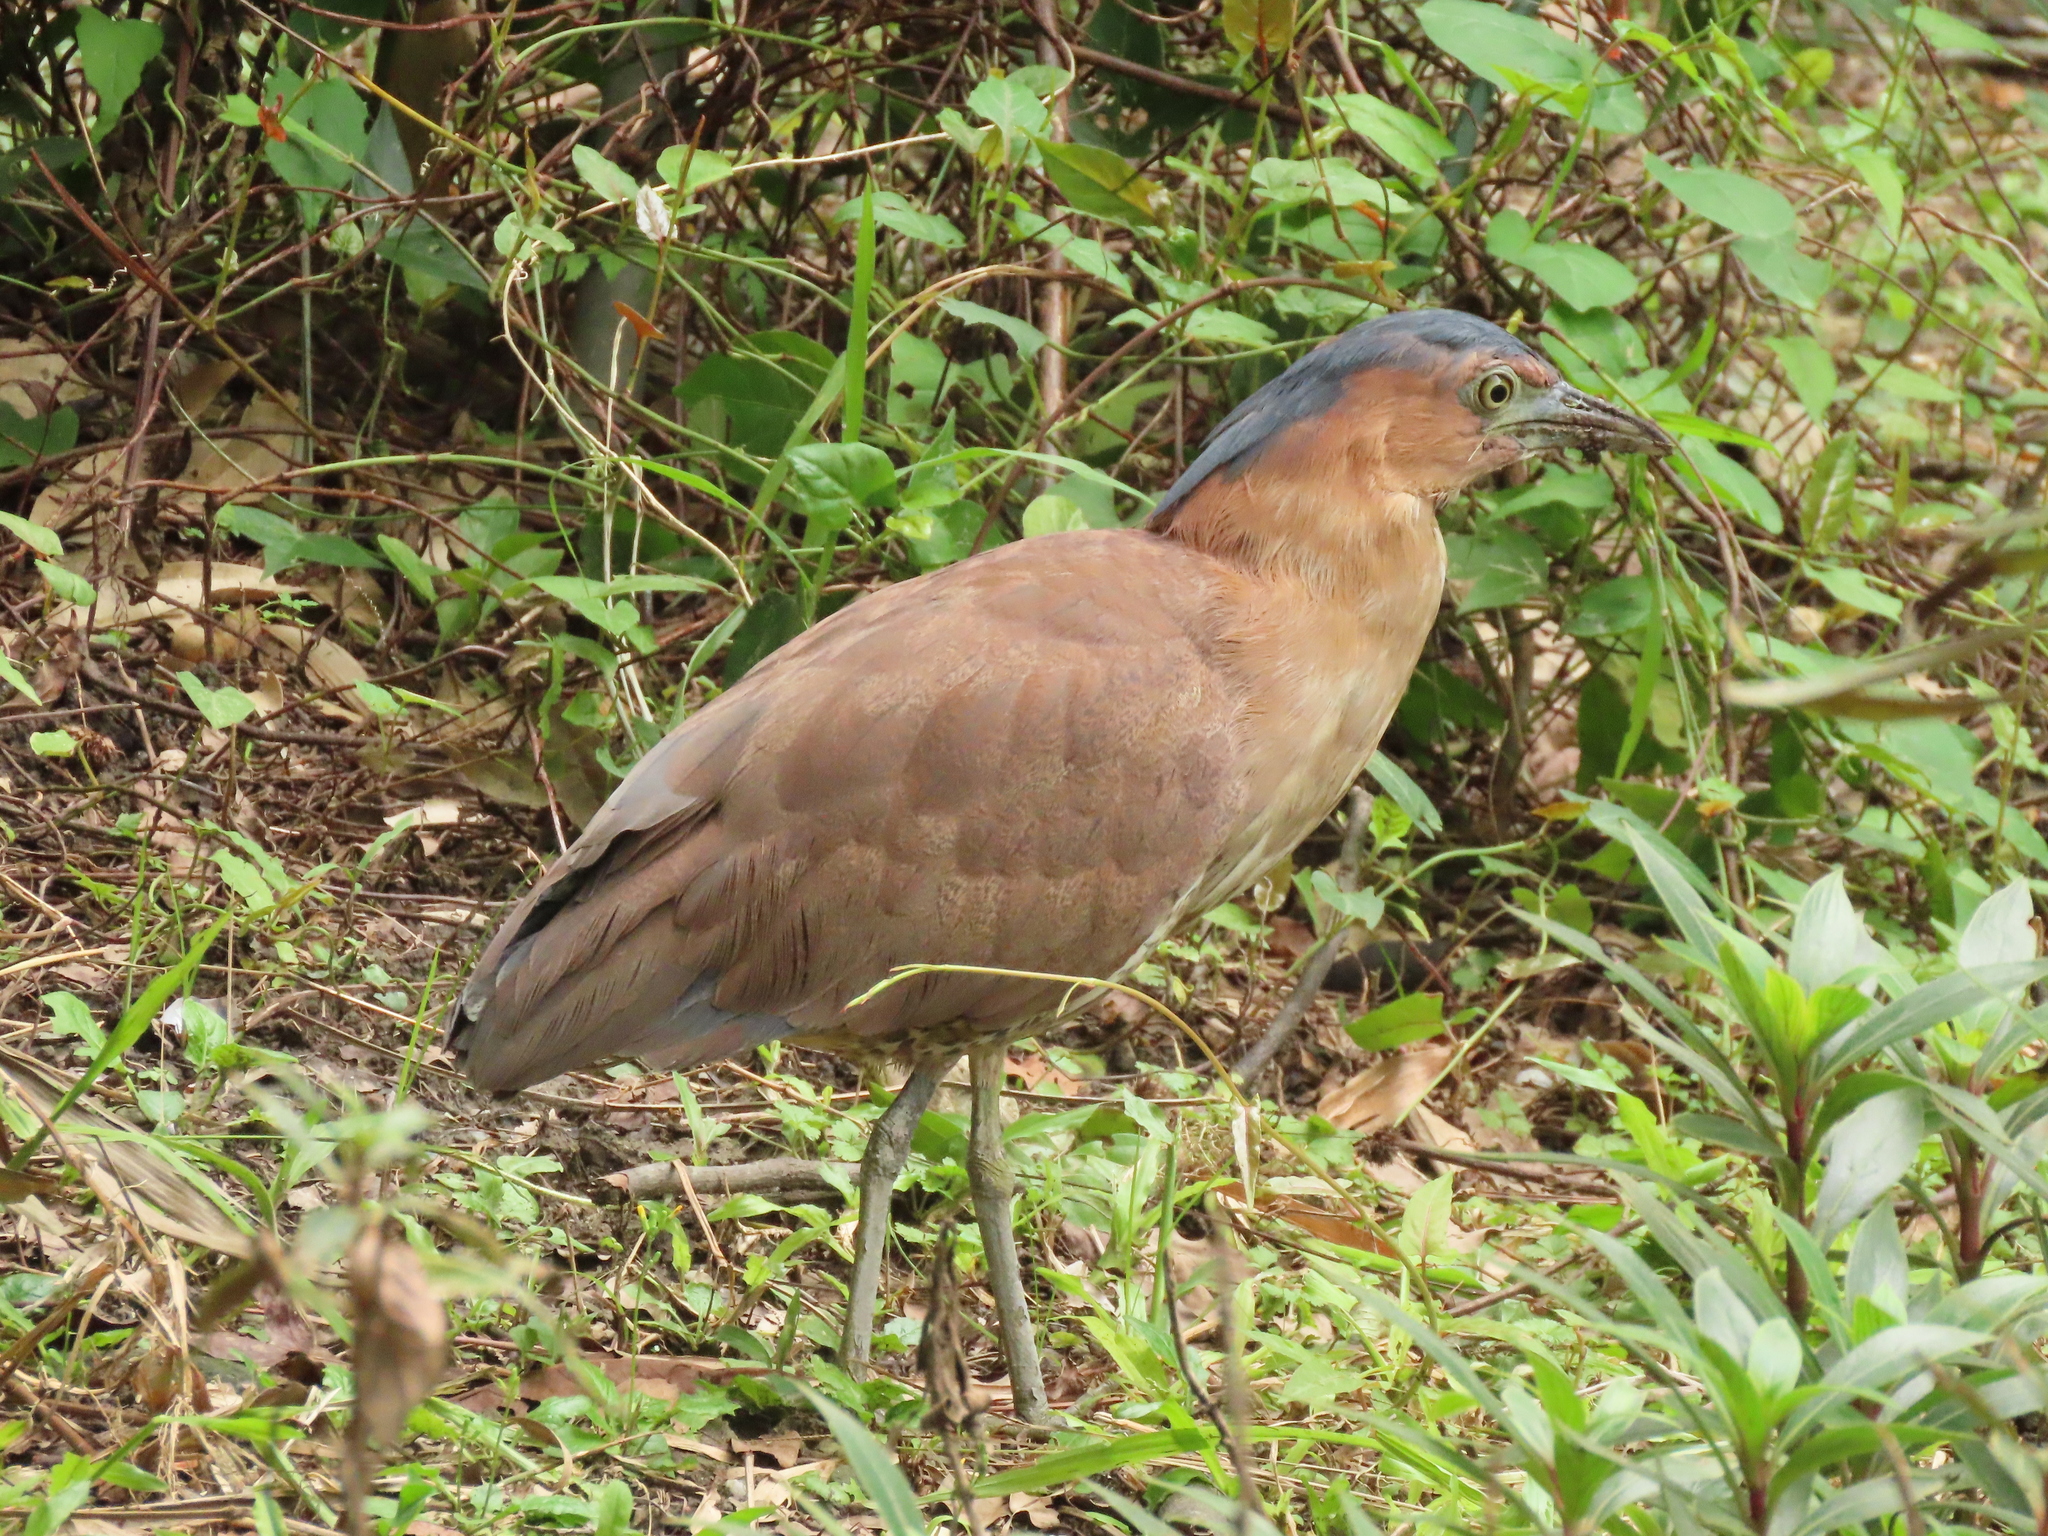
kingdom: Animalia
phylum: Chordata
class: Aves
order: Pelecaniformes
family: Ardeidae
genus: Gorsachius
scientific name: Gorsachius melanolophus
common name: Malayan night heron
